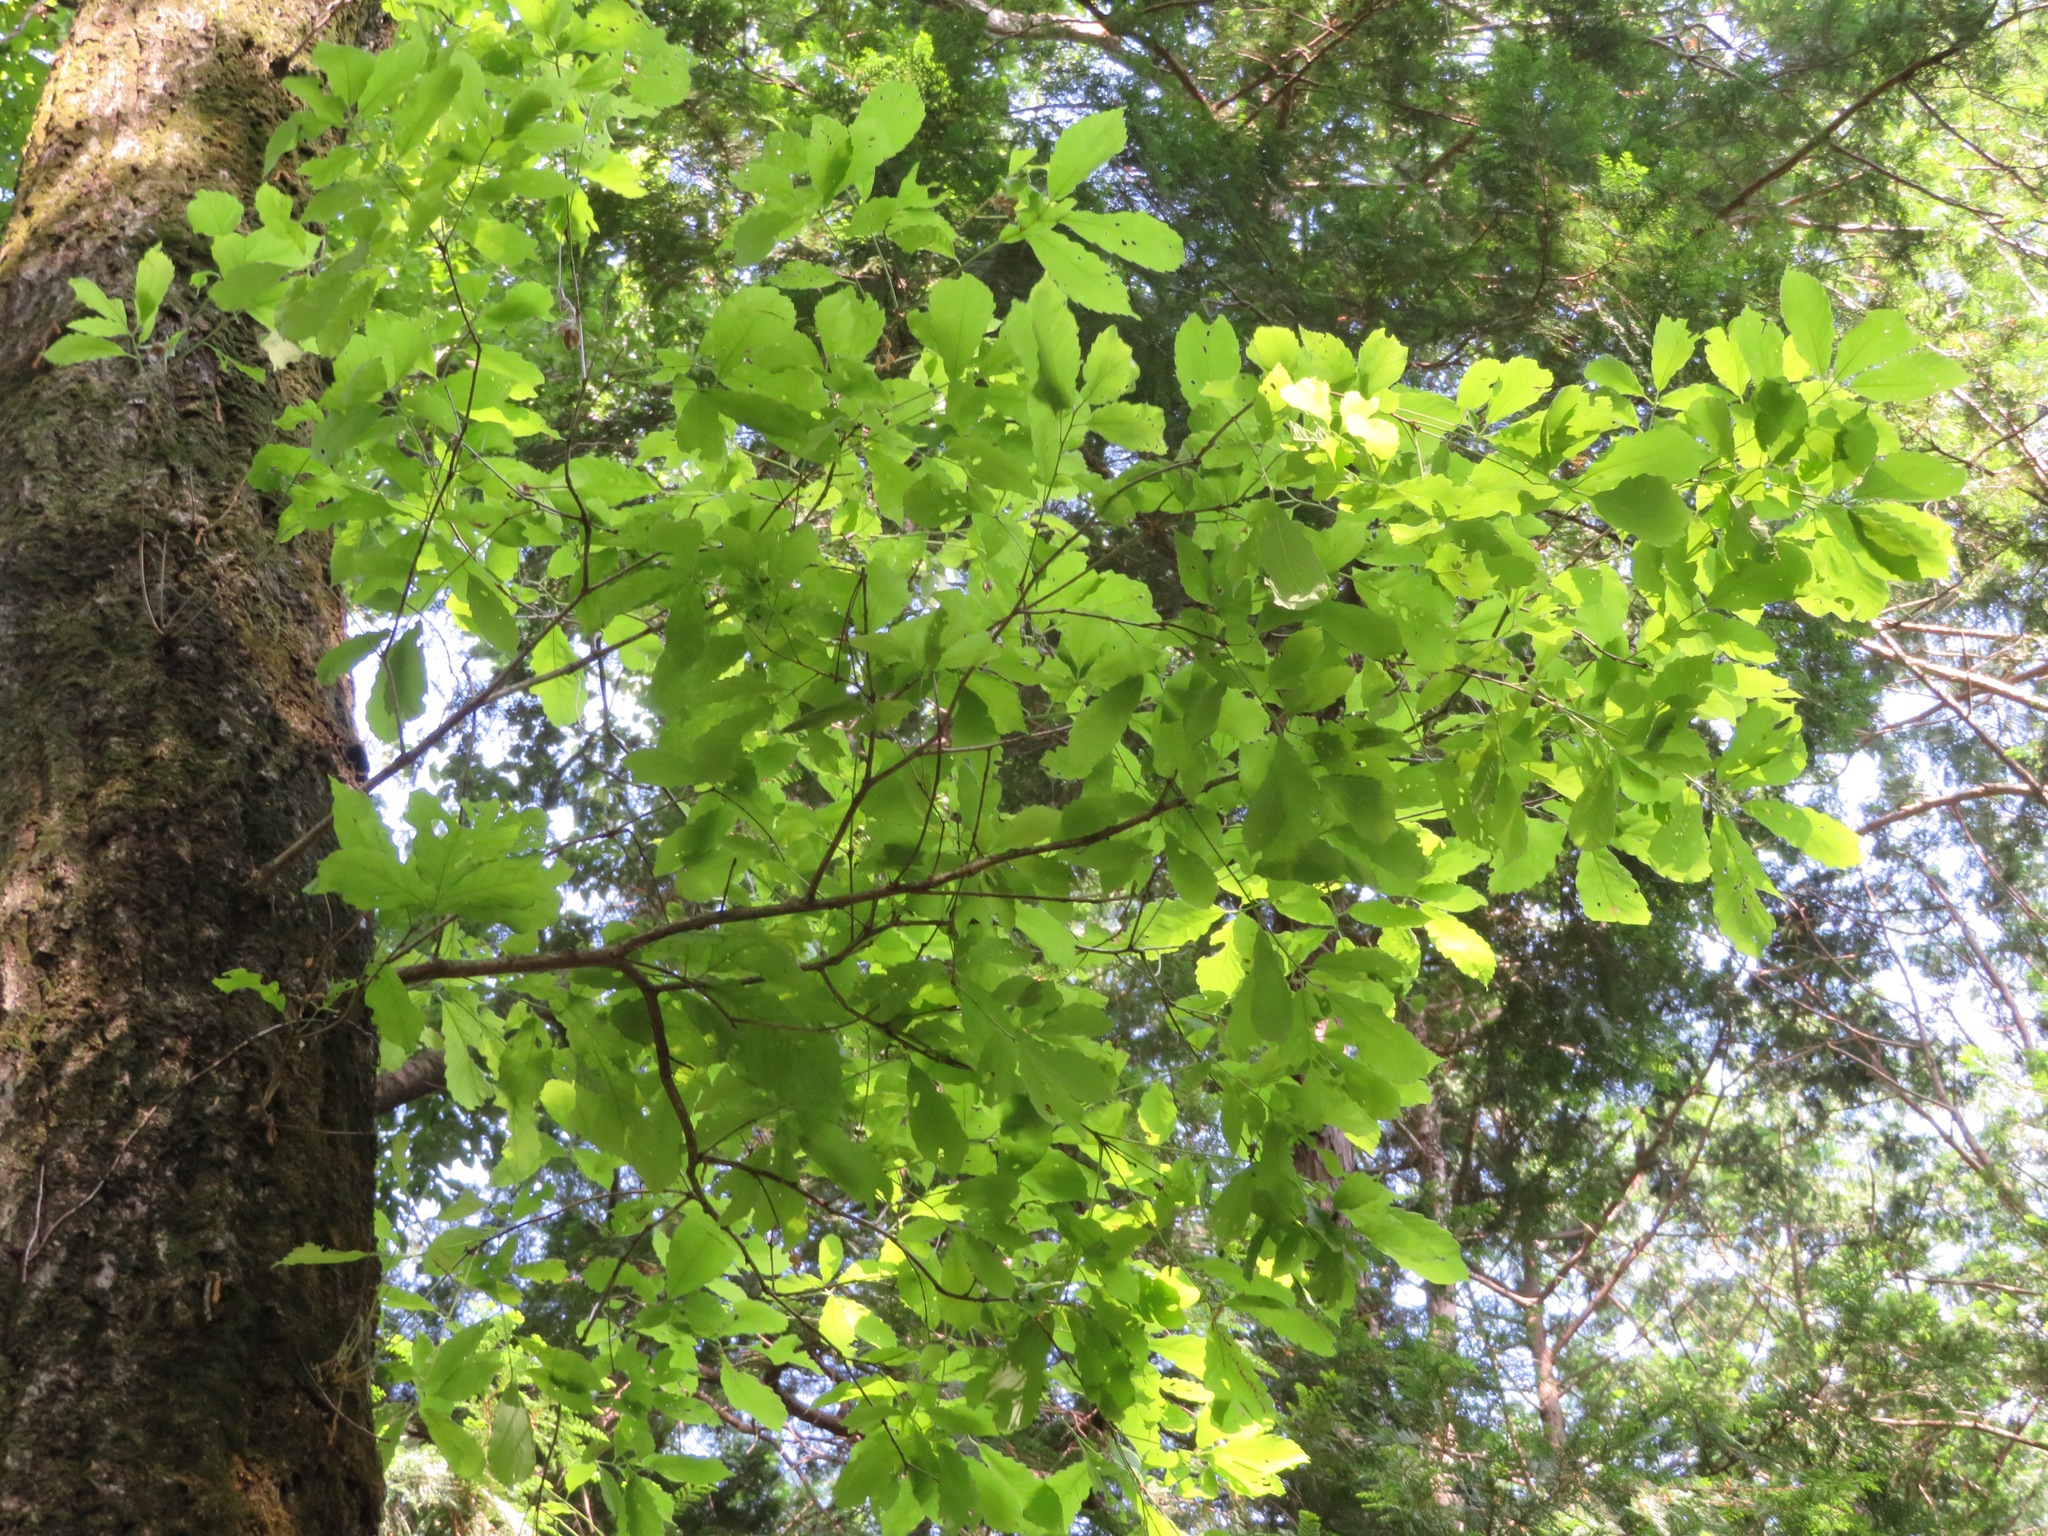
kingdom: Plantae
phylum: Tracheophyta
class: Magnoliopsida
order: Fagales
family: Fagaceae
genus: Quercus
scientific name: Quercus serrata
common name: Bao li
